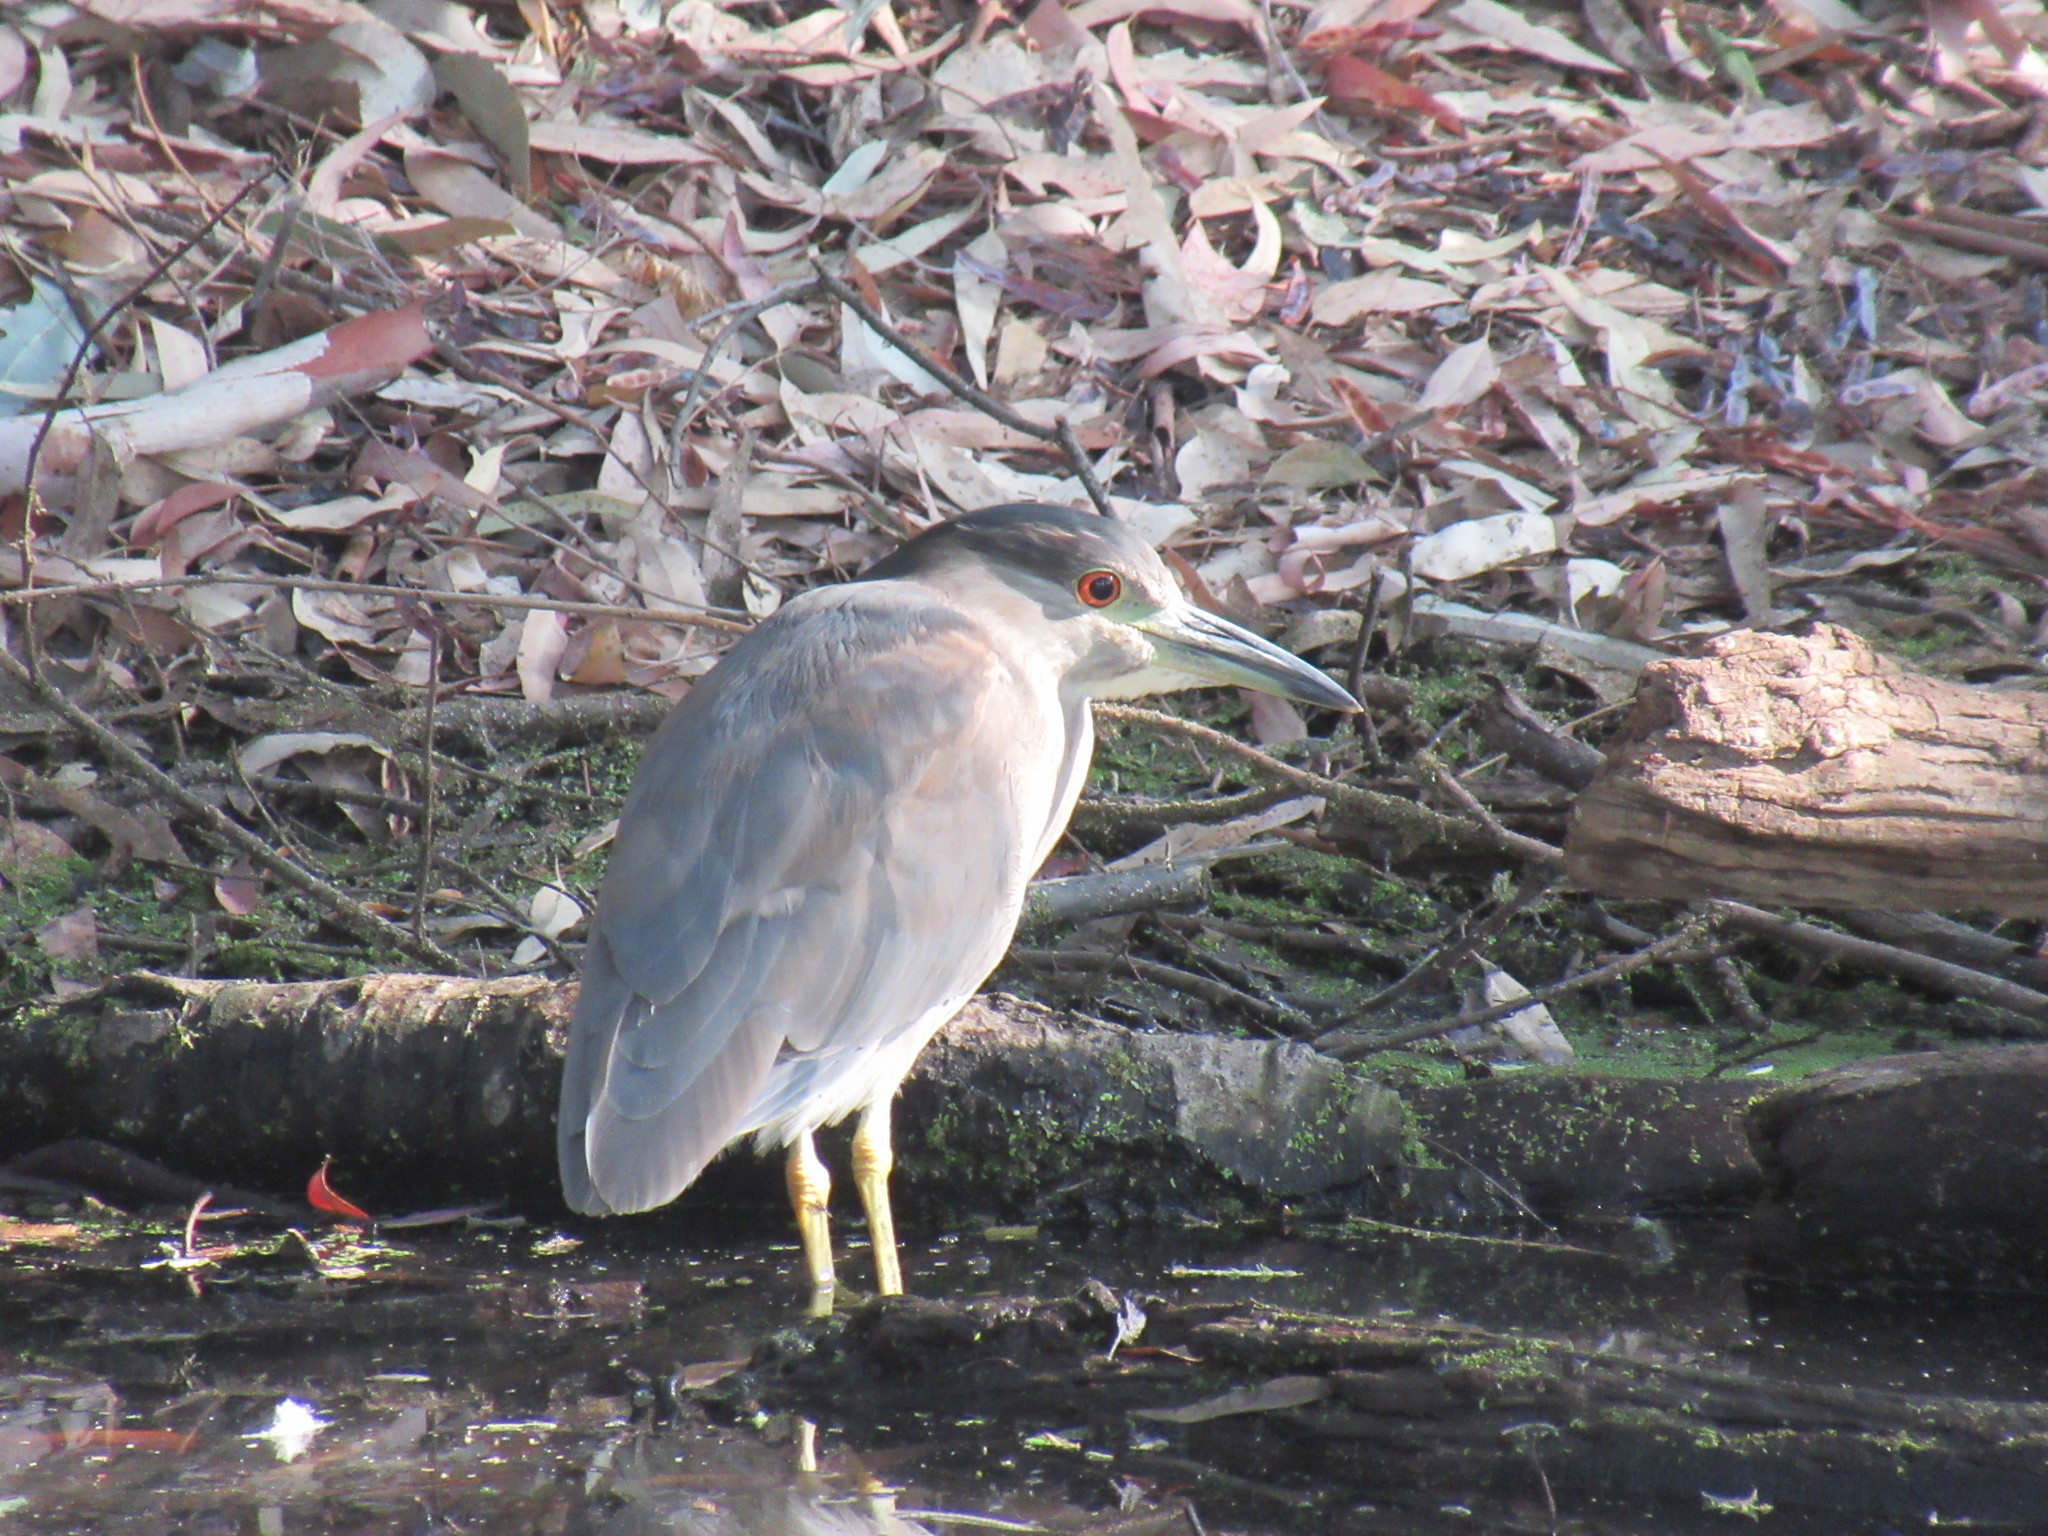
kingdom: Animalia
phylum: Chordata
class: Aves
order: Pelecaniformes
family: Ardeidae
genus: Nycticorax
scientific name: Nycticorax nycticorax
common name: Black-crowned night heron
